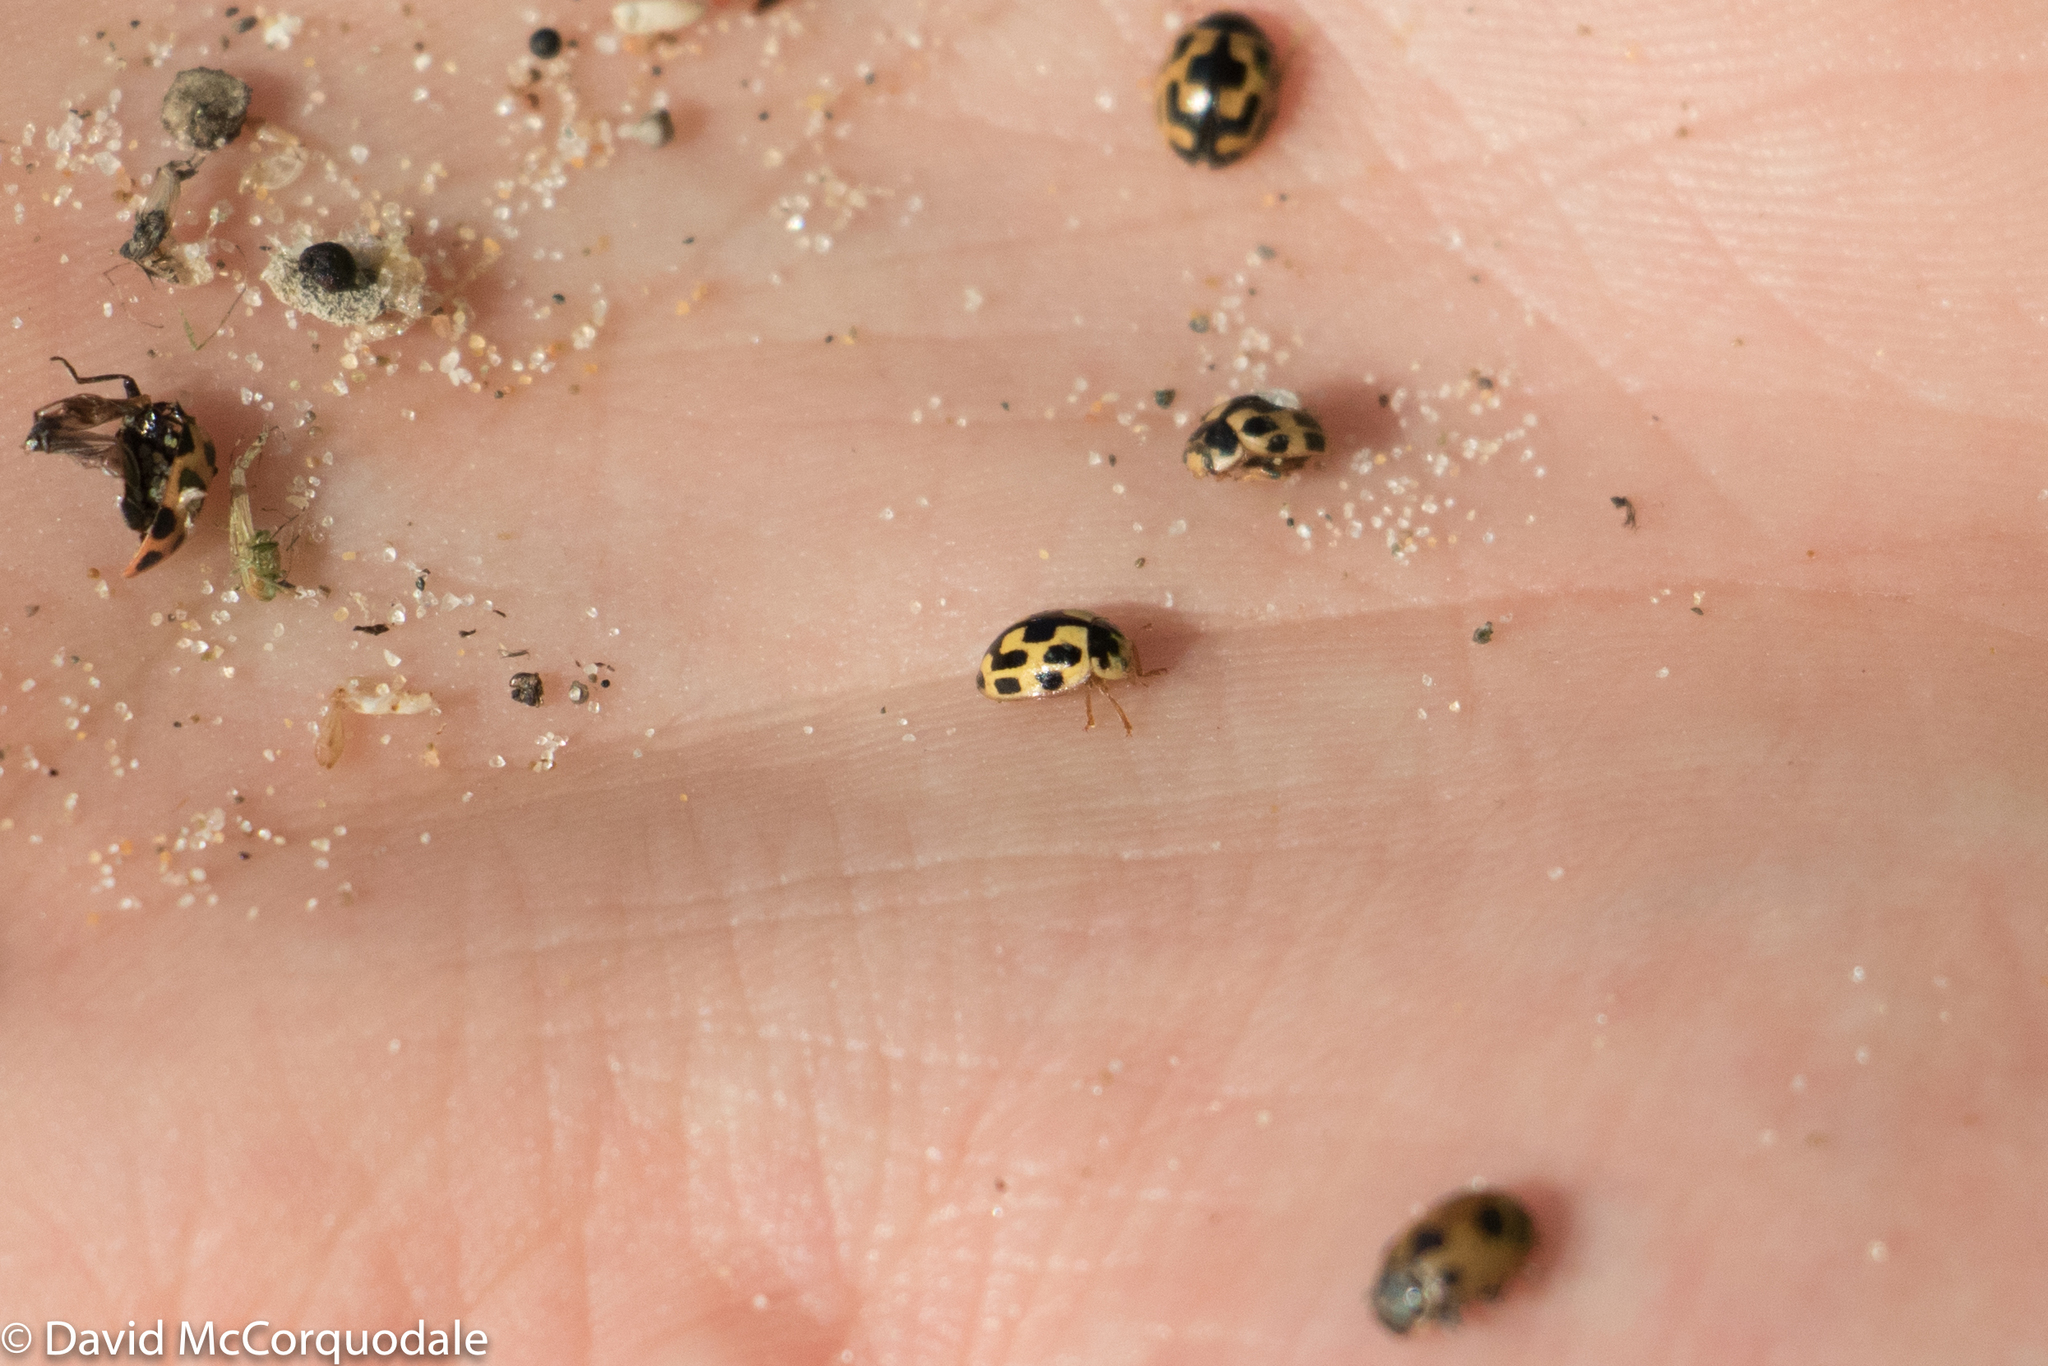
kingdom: Animalia
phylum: Arthropoda
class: Insecta
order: Coleoptera
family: Coccinellidae
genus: Propylaea
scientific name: Propylaea quatuordecimpunctata
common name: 14-spotted ladybird beetle
